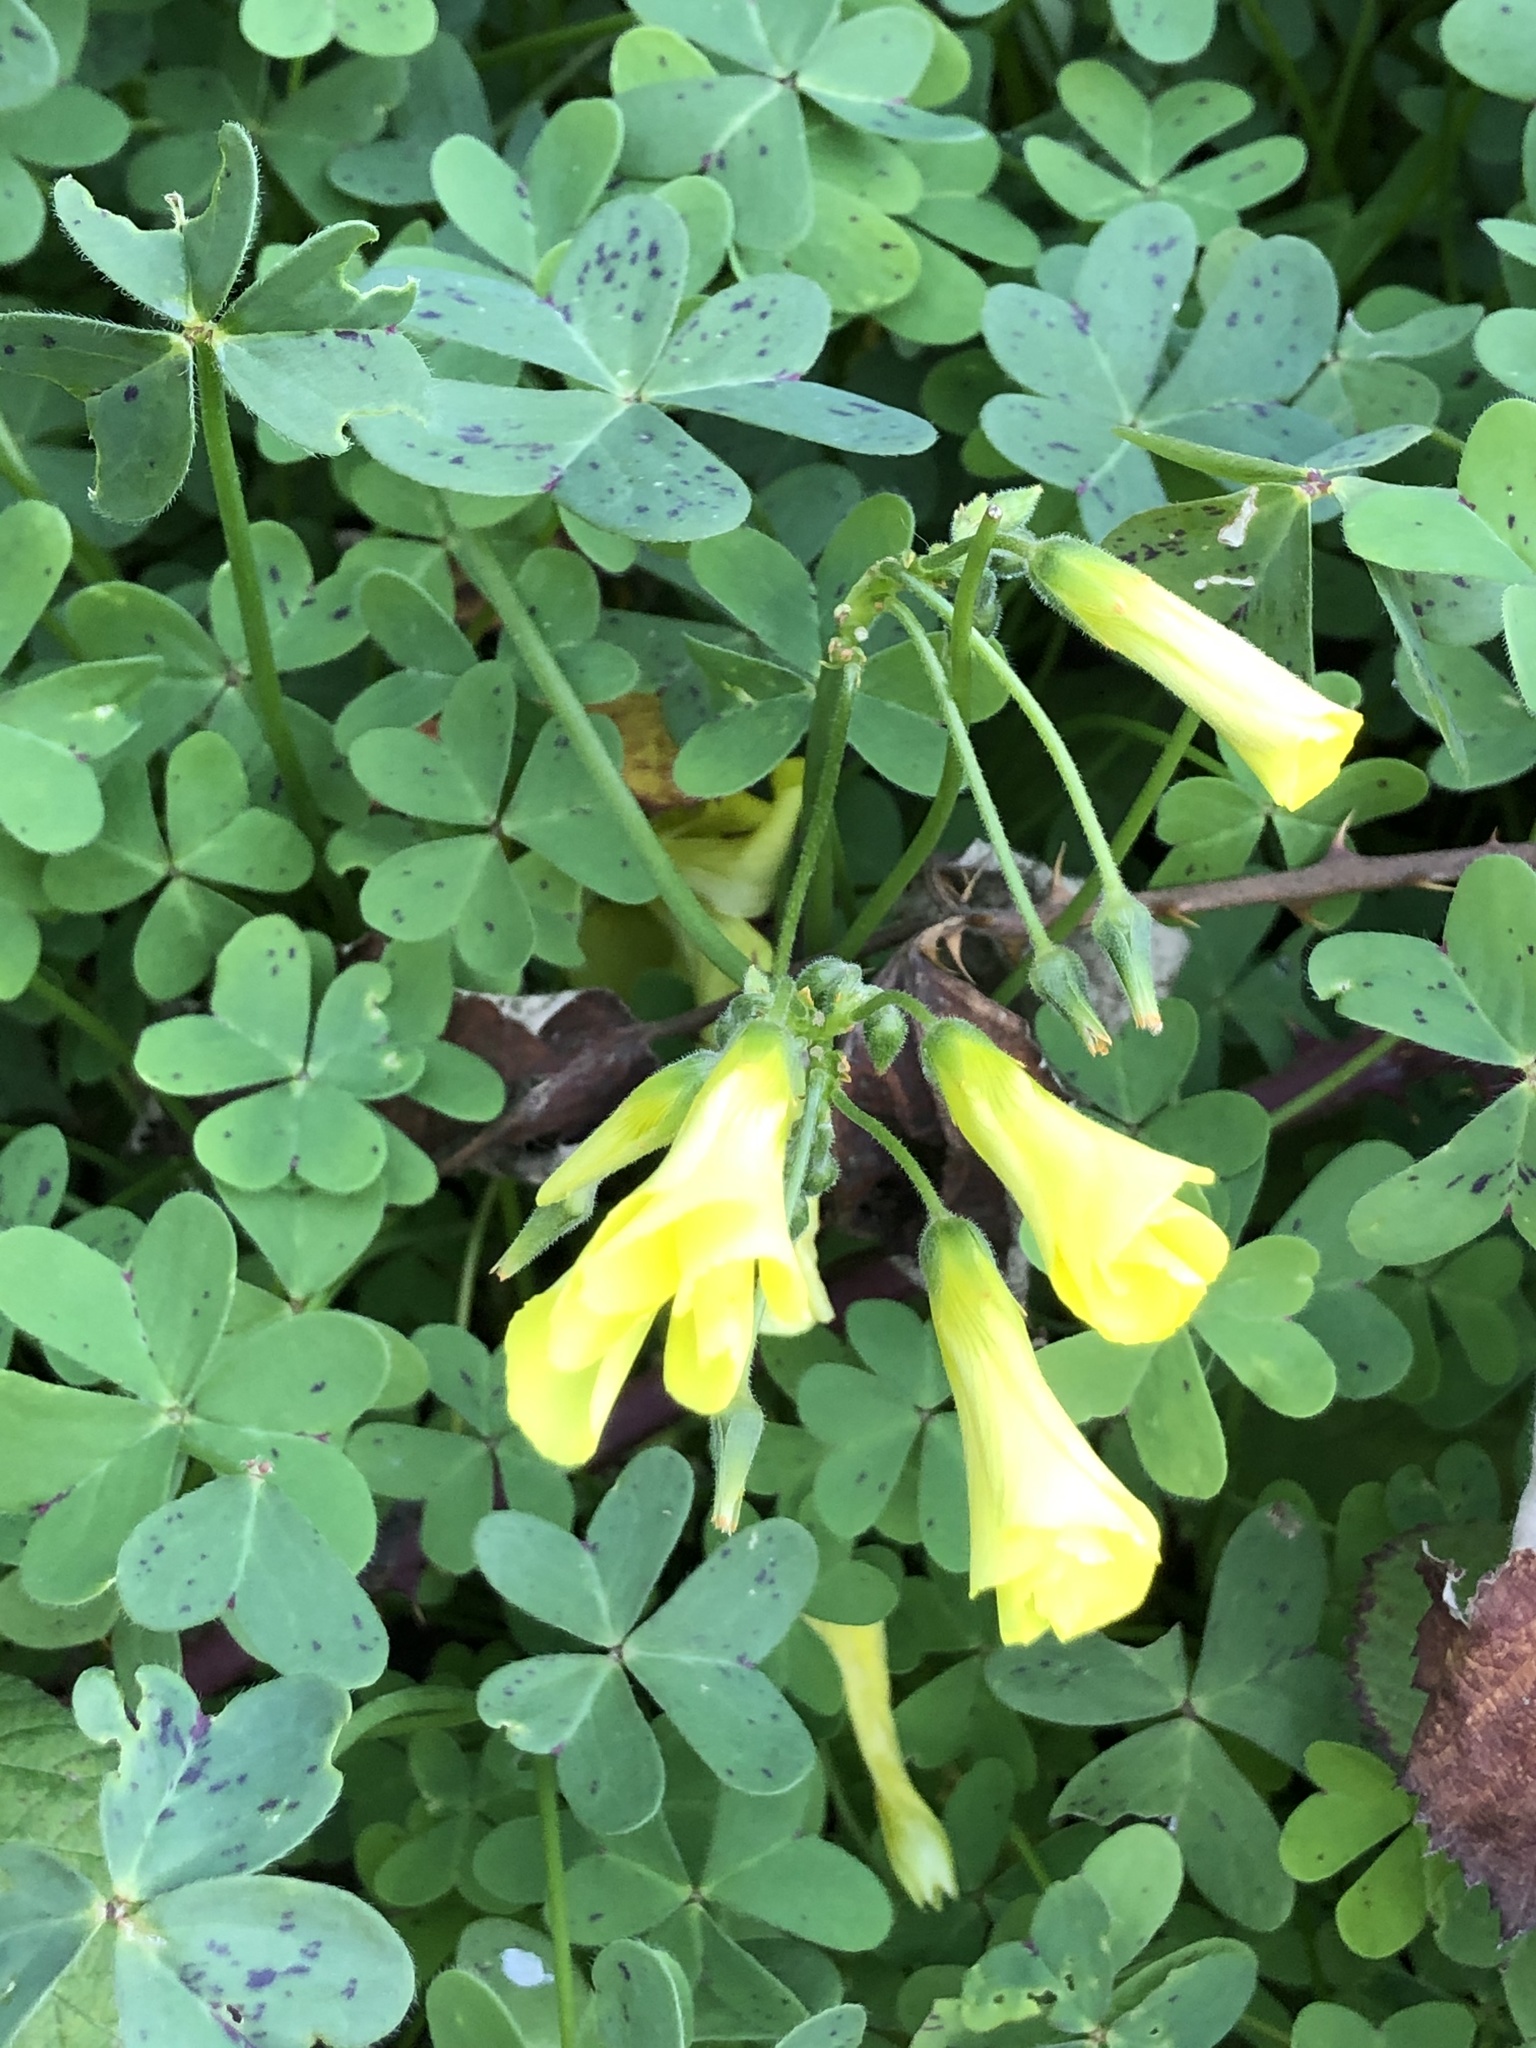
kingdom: Plantae
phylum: Tracheophyta
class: Magnoliopsida
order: Oxalidales
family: Oxalidaceae
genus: Oxalis
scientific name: Oxalis pes-caprae
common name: Bermuda-buttercup
